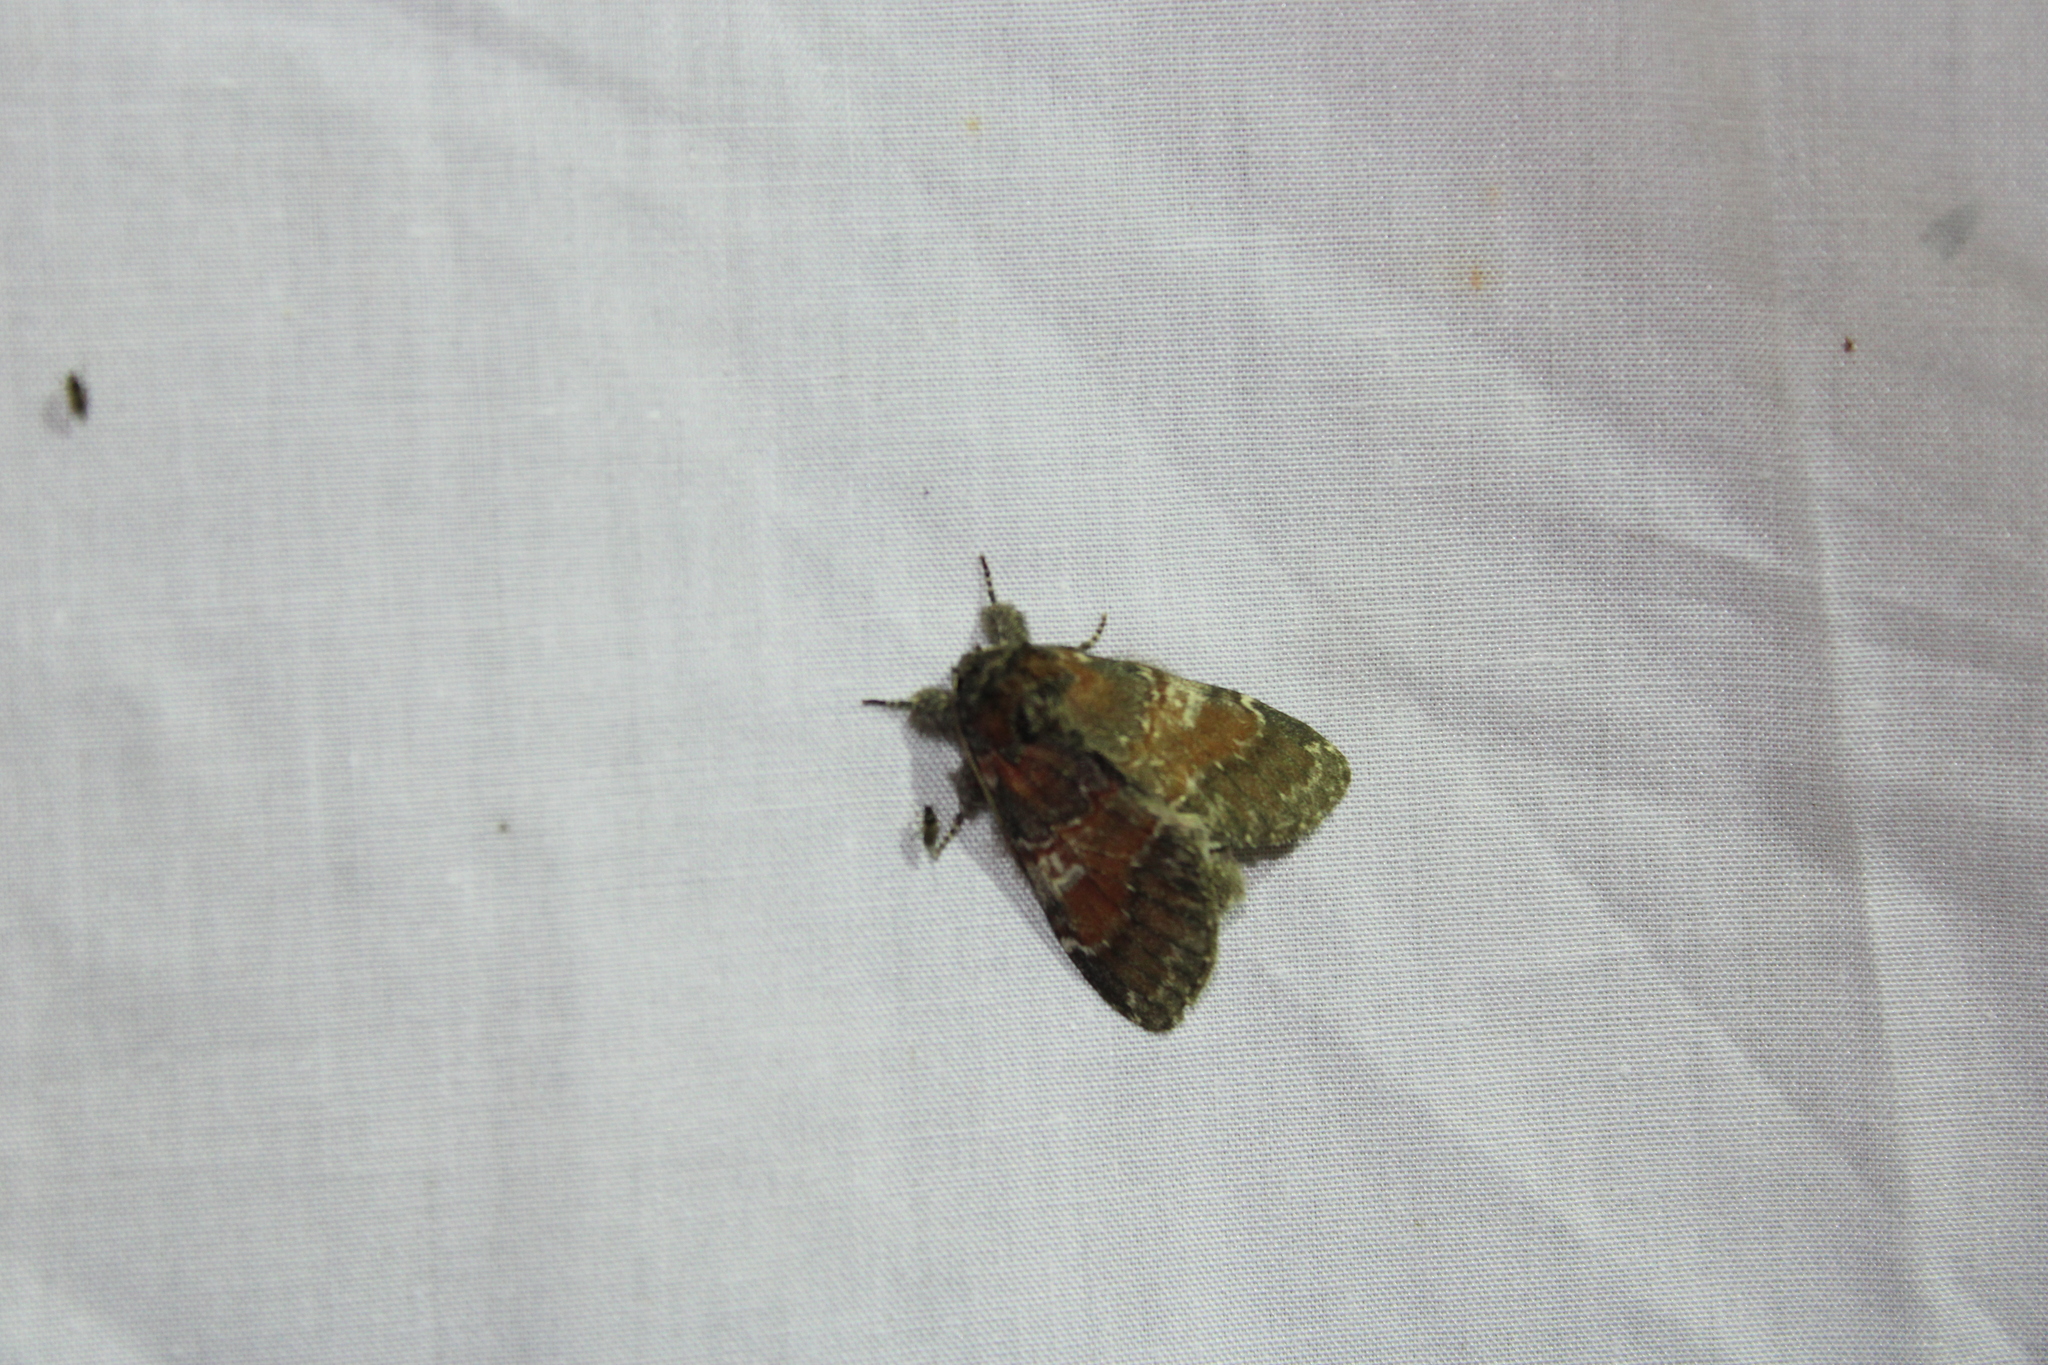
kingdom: Animalia
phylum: Arthropoda
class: Insecta
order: Lepidoptera
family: Notodontidae
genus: Peridea
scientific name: Peridea ferruginea
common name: Chocolate prominent
